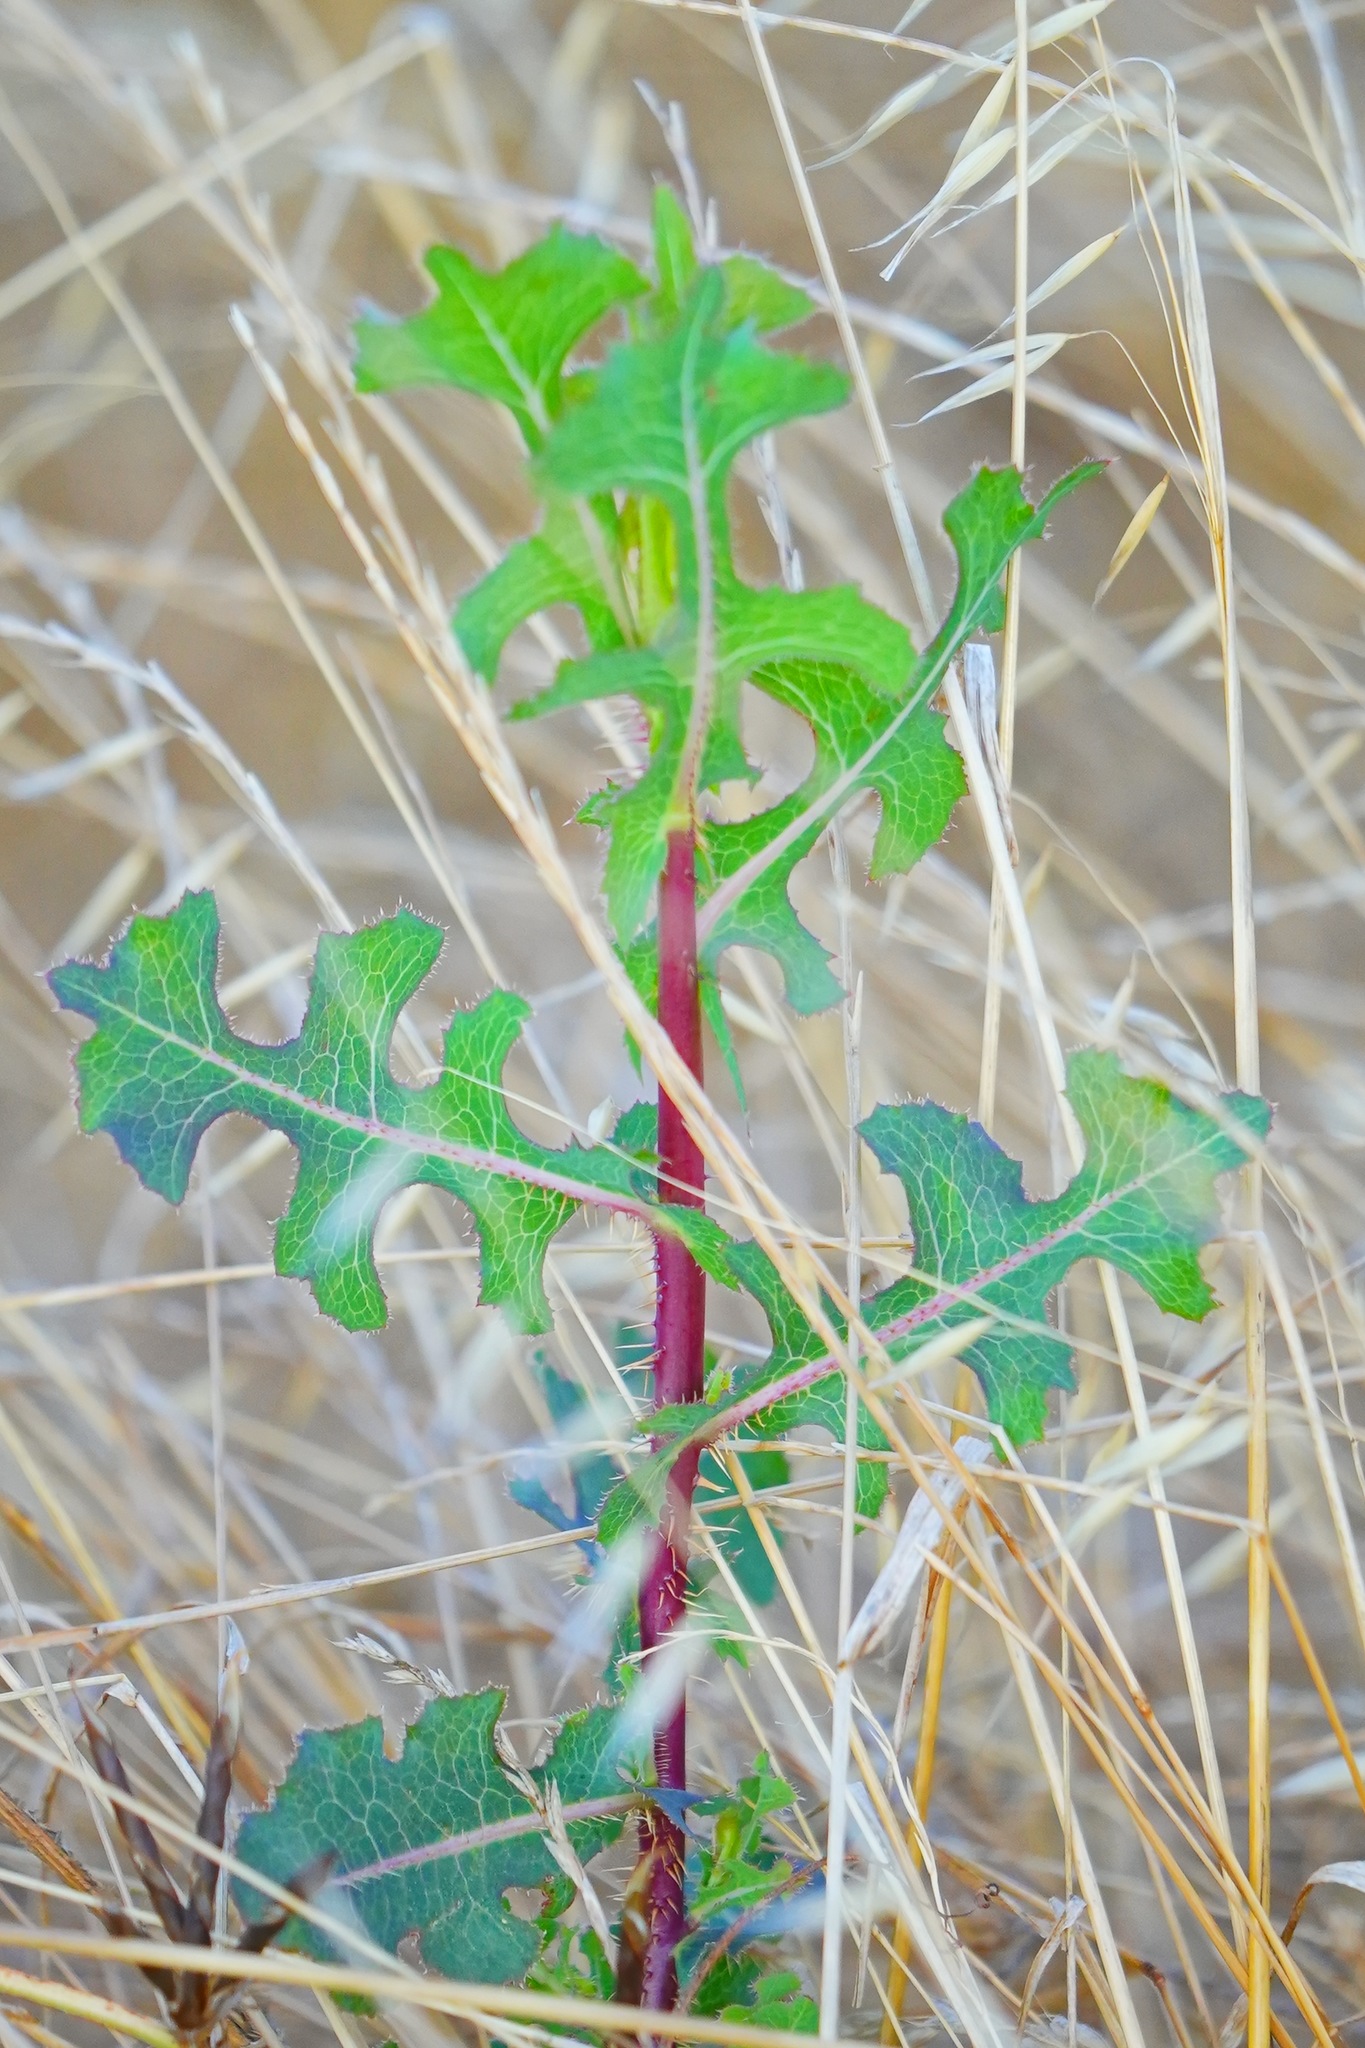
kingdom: Plantae
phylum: Tracheophyta
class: Magnoliopsida
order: Asterales
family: Asteraceae
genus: Lactuca
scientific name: Lactuca serriola
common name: Prickly lettuce
